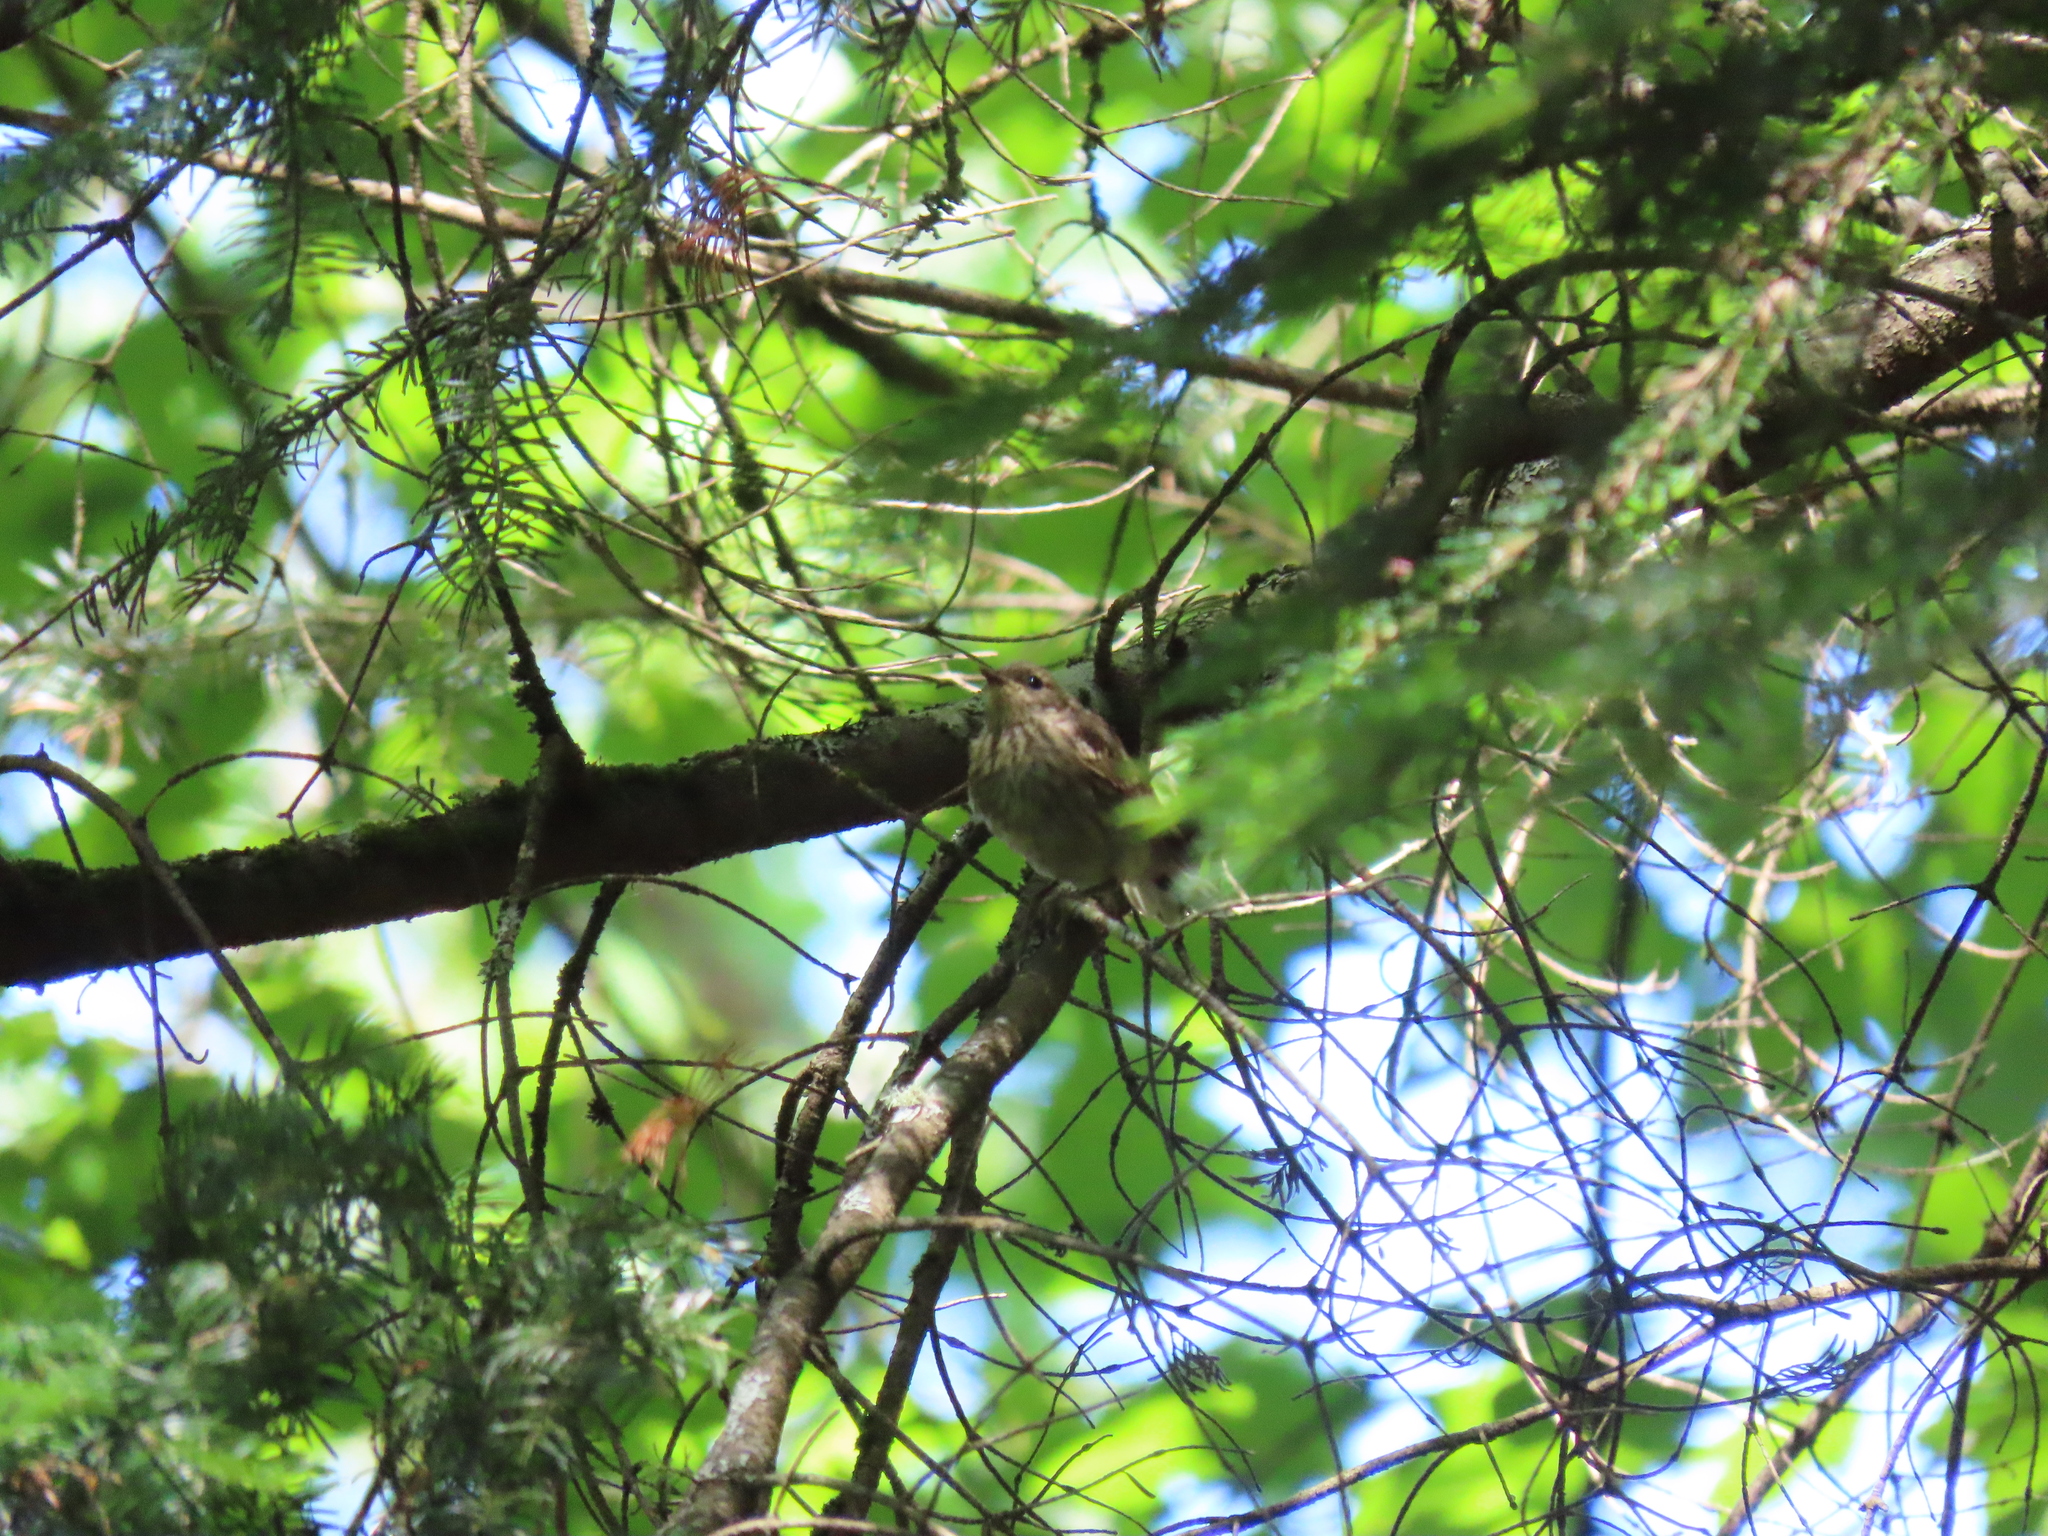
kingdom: Animalia
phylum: Chordata
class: Aves
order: Passeriformes
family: Parulidae
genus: Setophaga
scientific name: Setophaga palmarum
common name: Palm warbler
